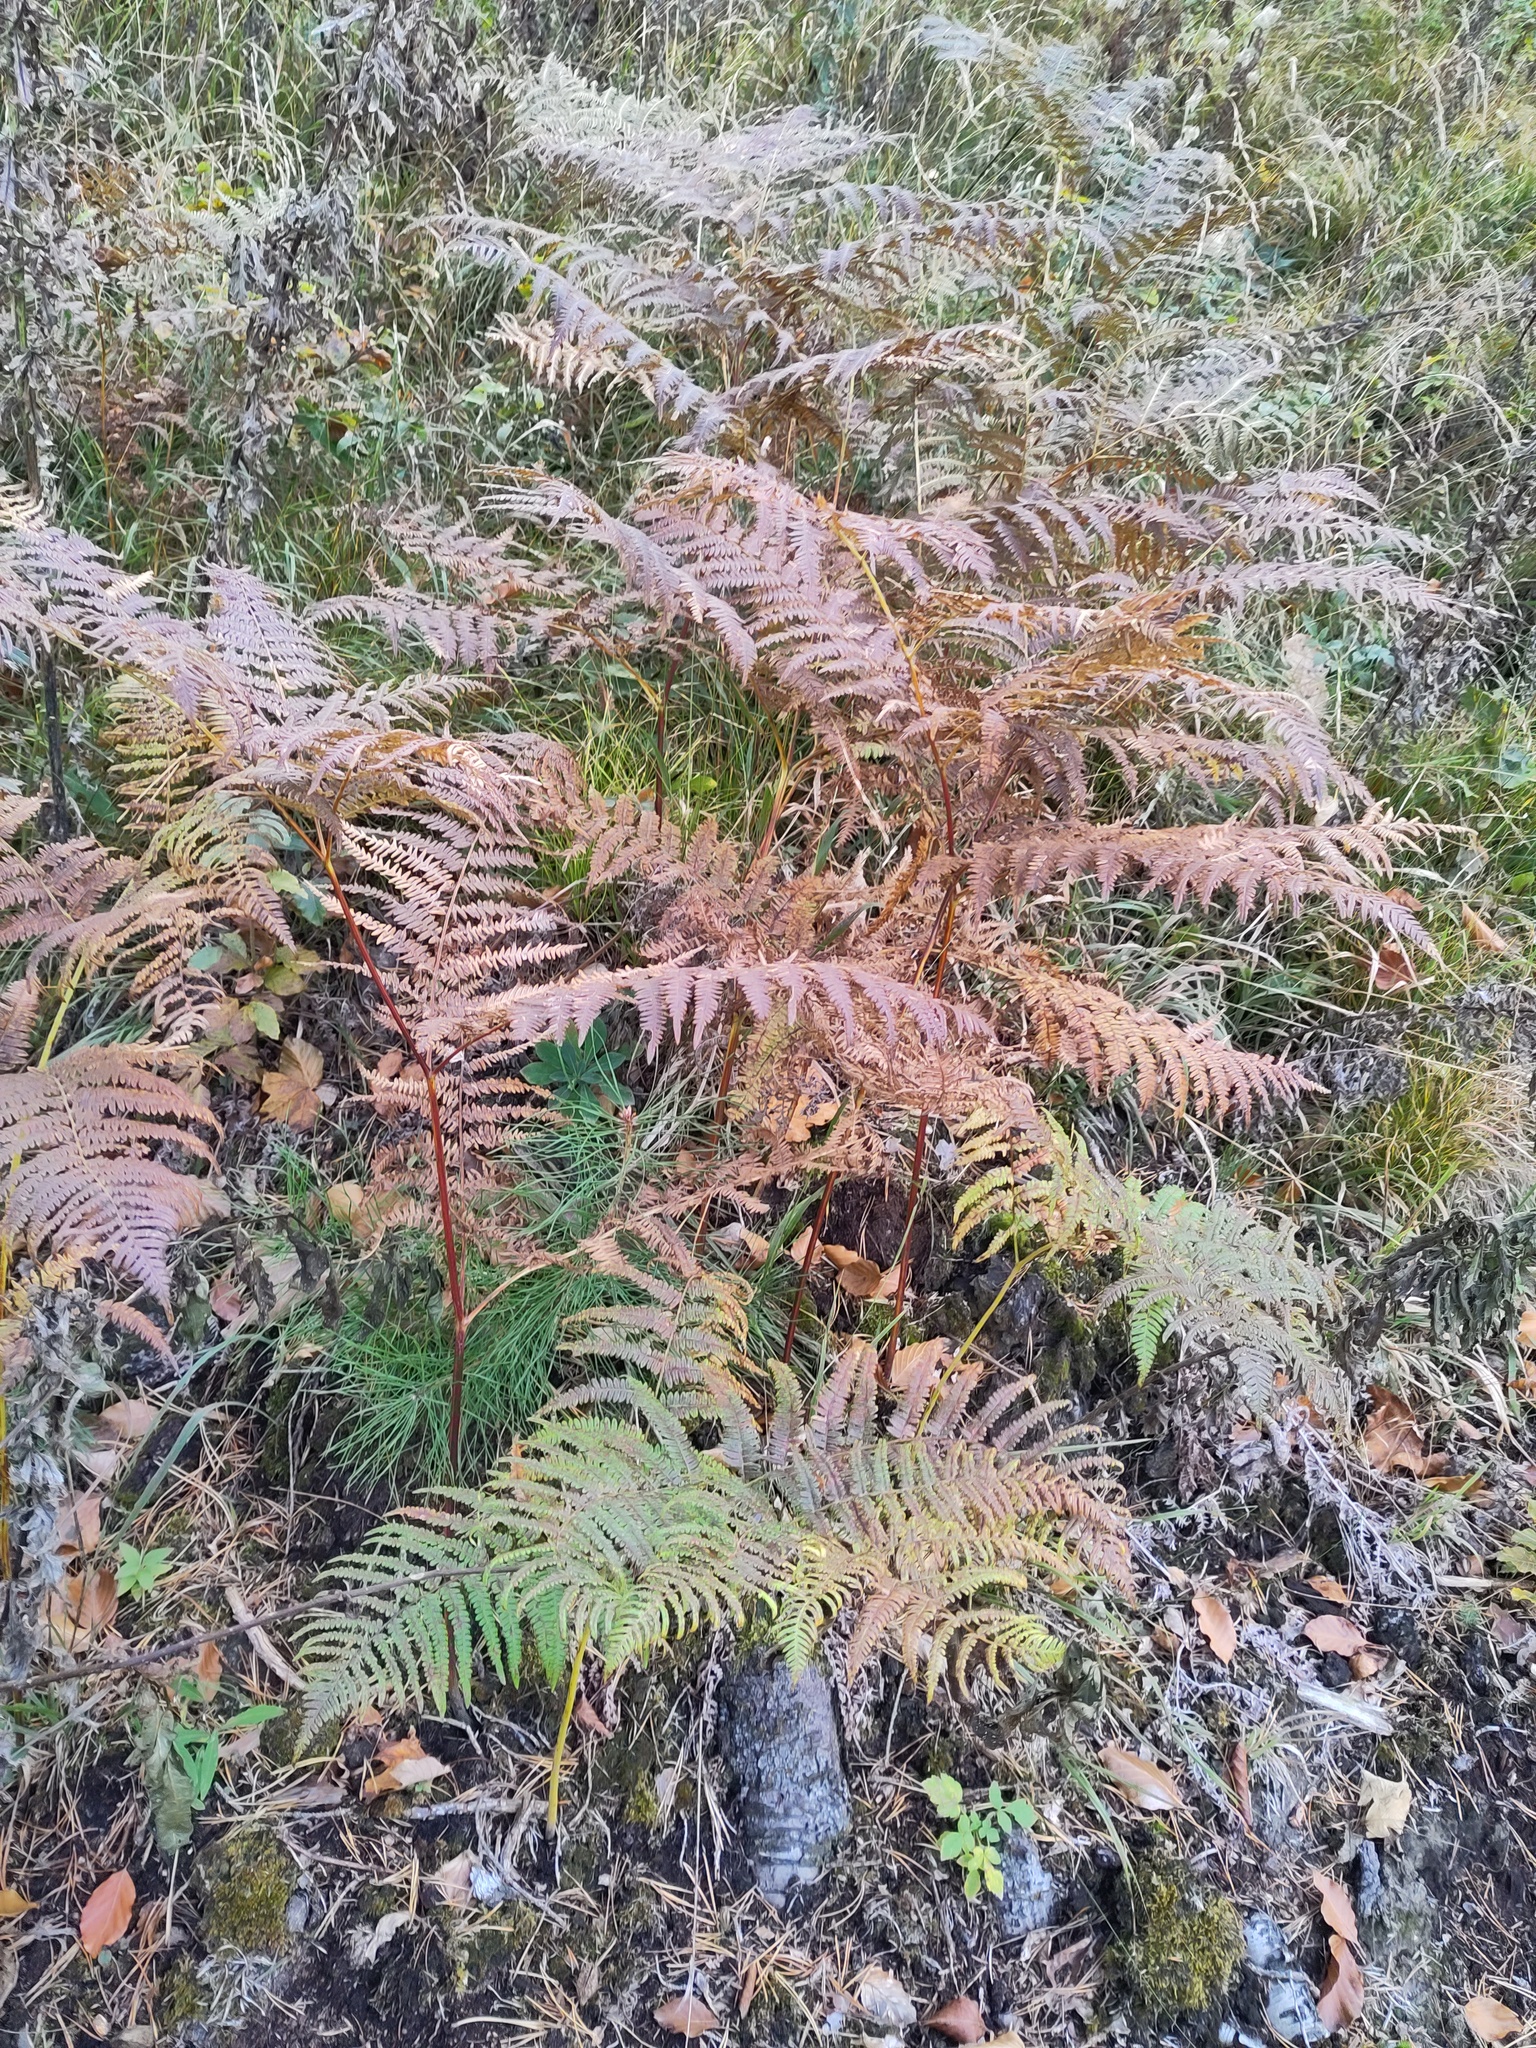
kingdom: Plantae
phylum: Tracheophyta
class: Polypodiopsida
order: Polypodiales
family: Dennstaedtiaceae
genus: Pteridium
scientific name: Pteridium aquilinum
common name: Bracken
